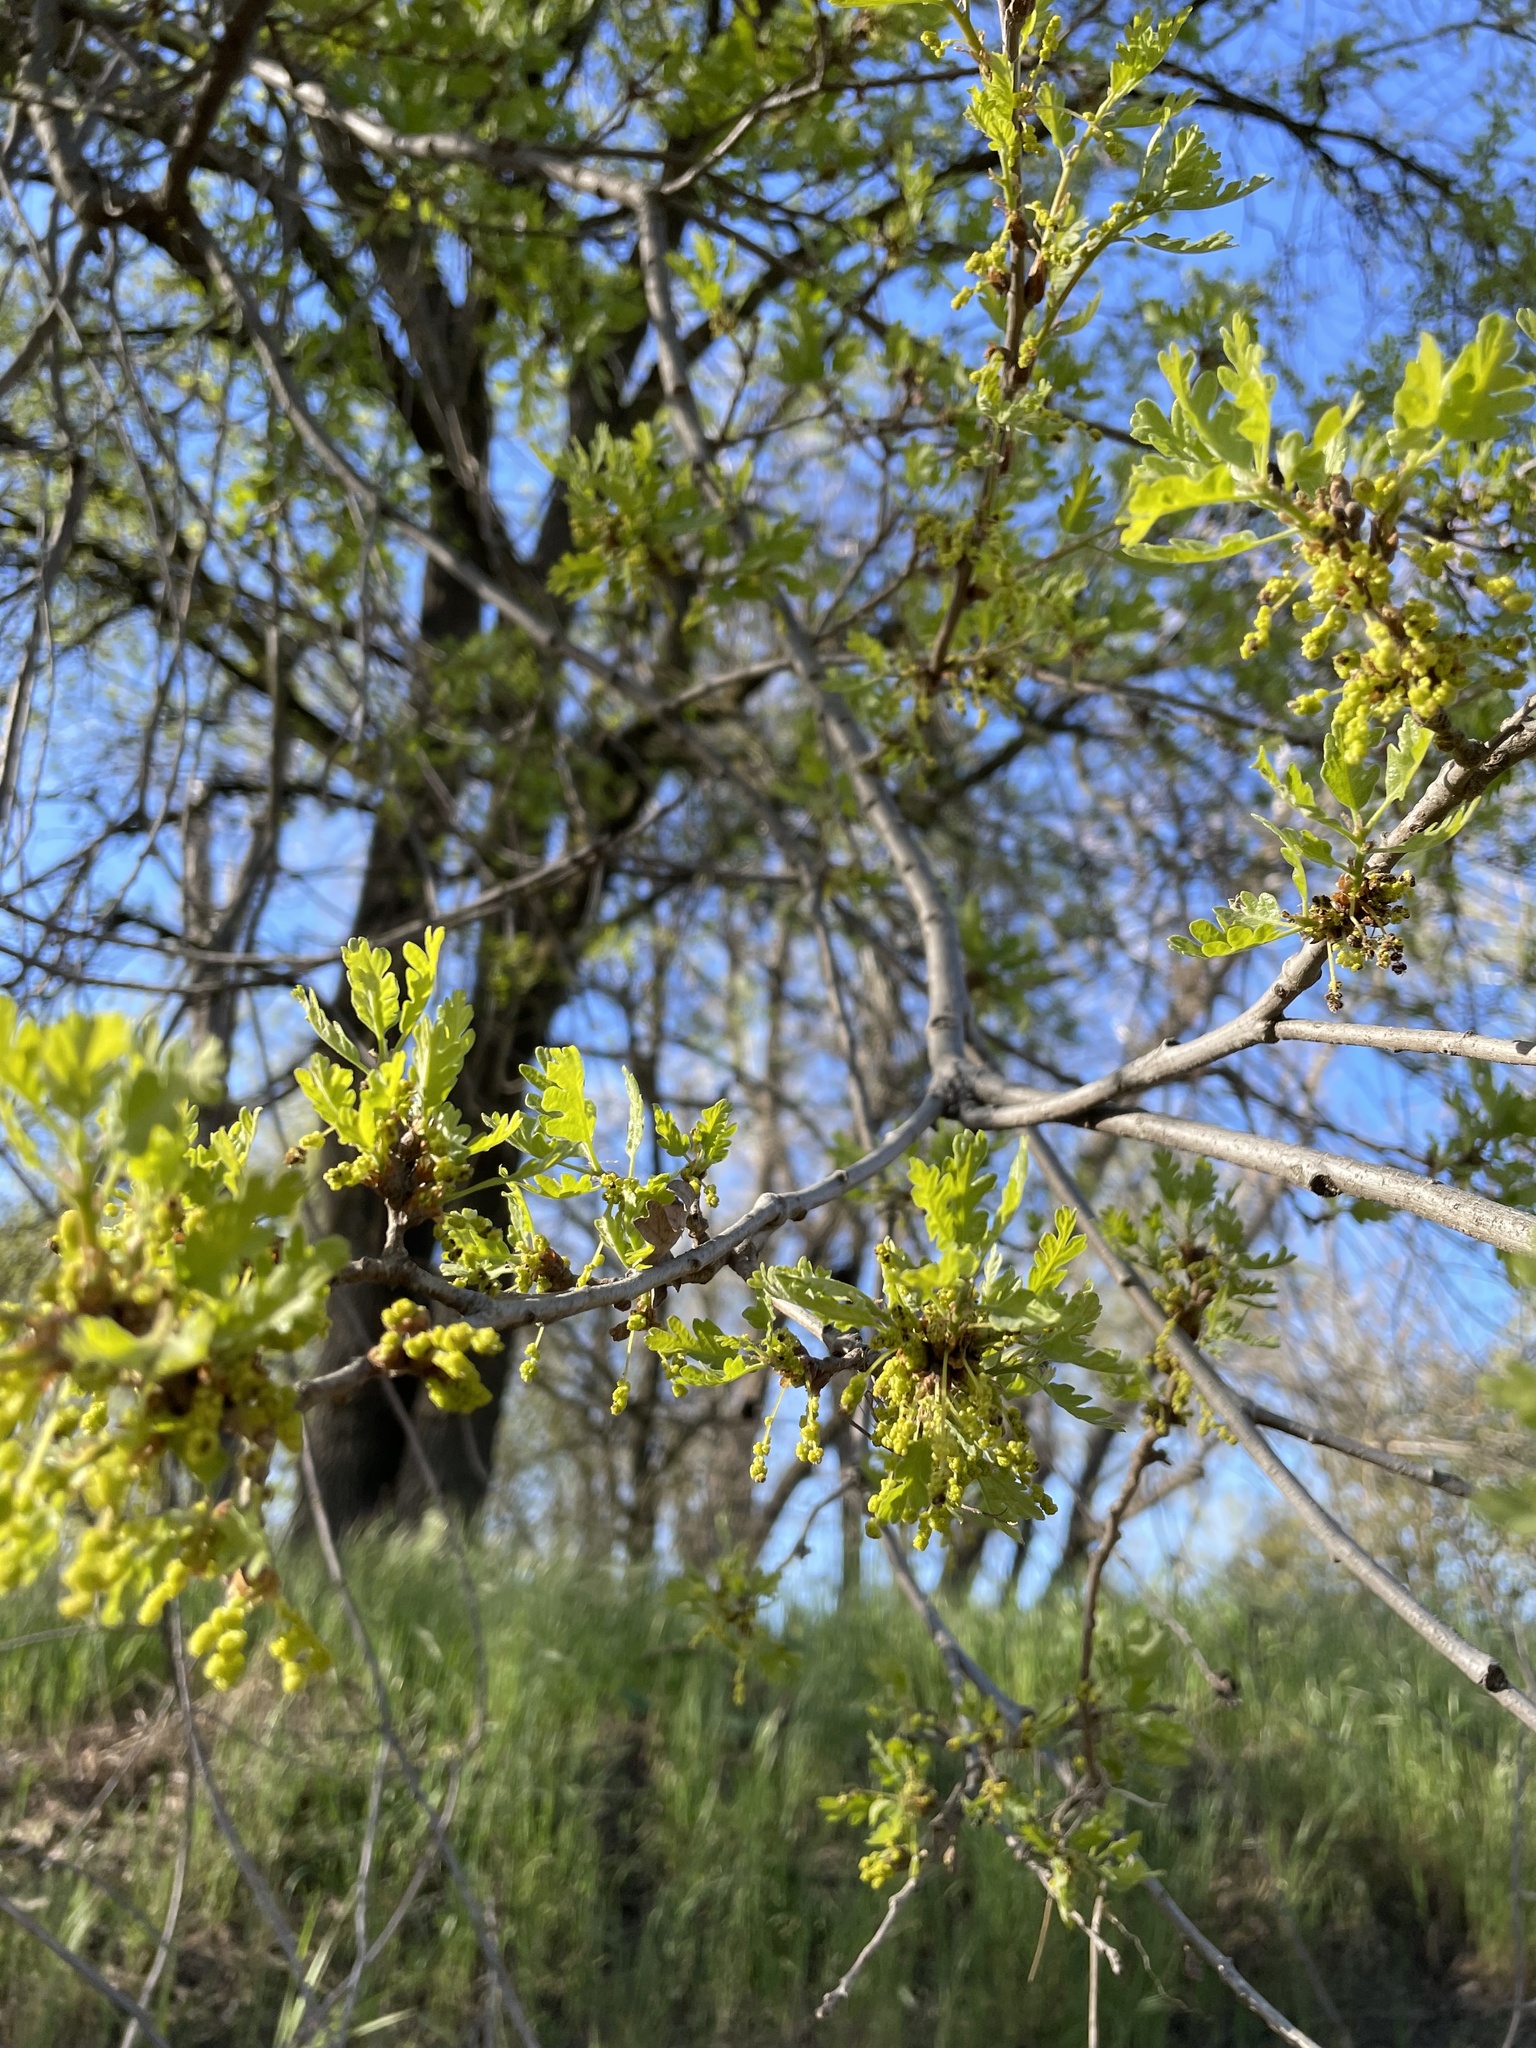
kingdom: Plantae
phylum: Tracheophyta
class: Magnoliopsida
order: Fagales
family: Fagaceae
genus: Quercus
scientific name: Quercus lobata
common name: Valley oak
